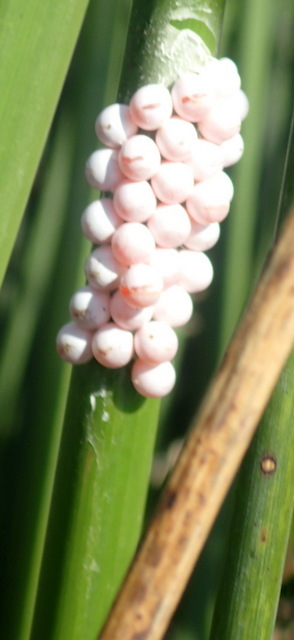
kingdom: Animalia
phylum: Mollusca
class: Gastropoda
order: Architaenioglossa
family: Ampullariidae
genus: Pomacea
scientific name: Pomacea paludosa
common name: Florida applesnail
